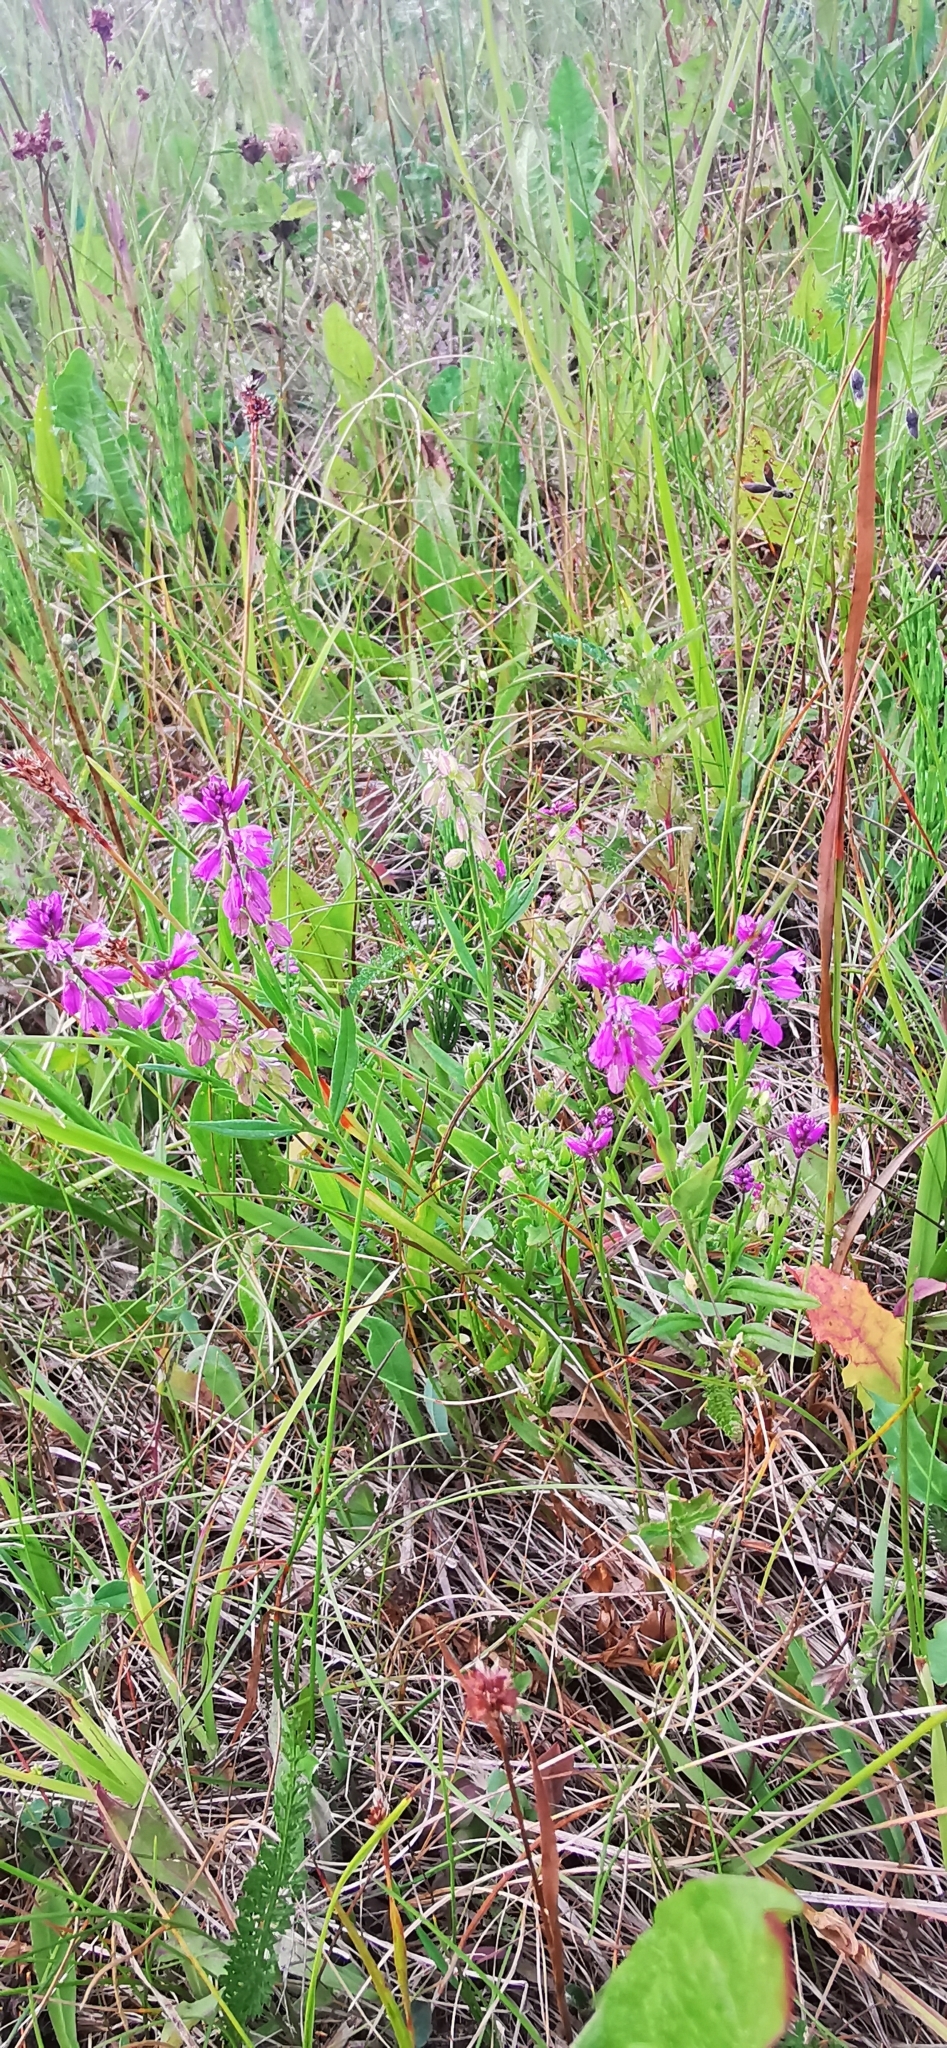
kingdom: Plantae
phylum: Tracheophyta
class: Magnoliopsida
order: Fabales
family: Polygalaceae
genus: Polygala
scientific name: Polygala comosa
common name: Tufted milkwort
